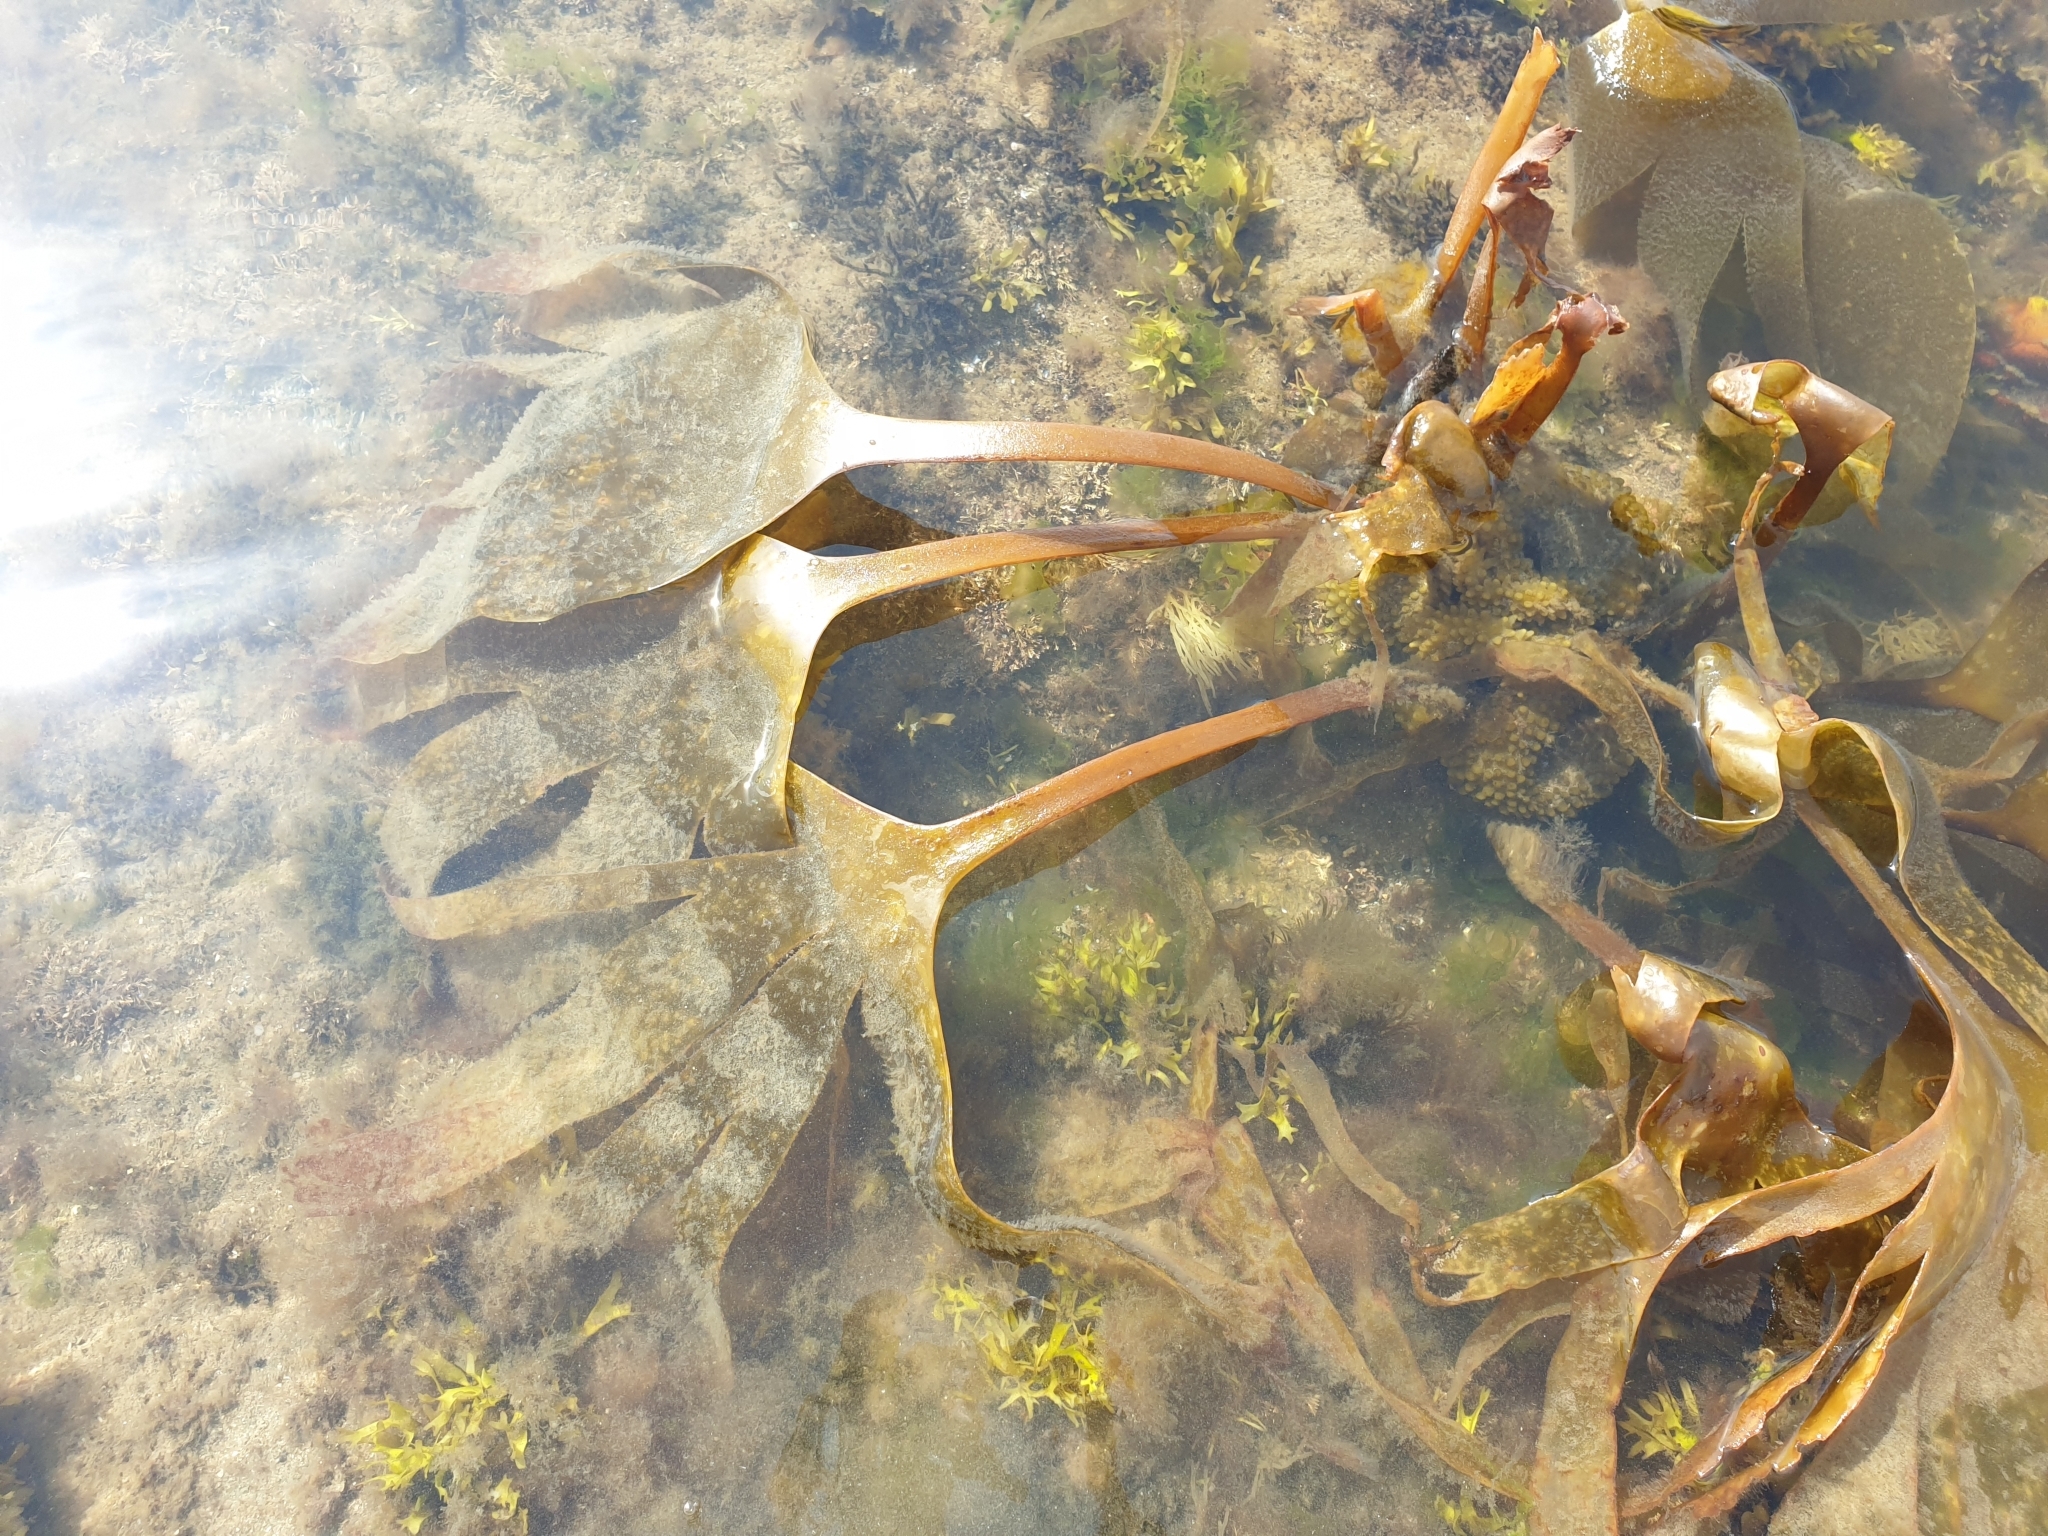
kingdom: Chromista
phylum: Ochrophyta
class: Phaeophyceae
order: Tilopteridales
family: Phyllariaceae
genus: Saccorhiza
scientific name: Saccorhiza polyschides
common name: Furbelows
